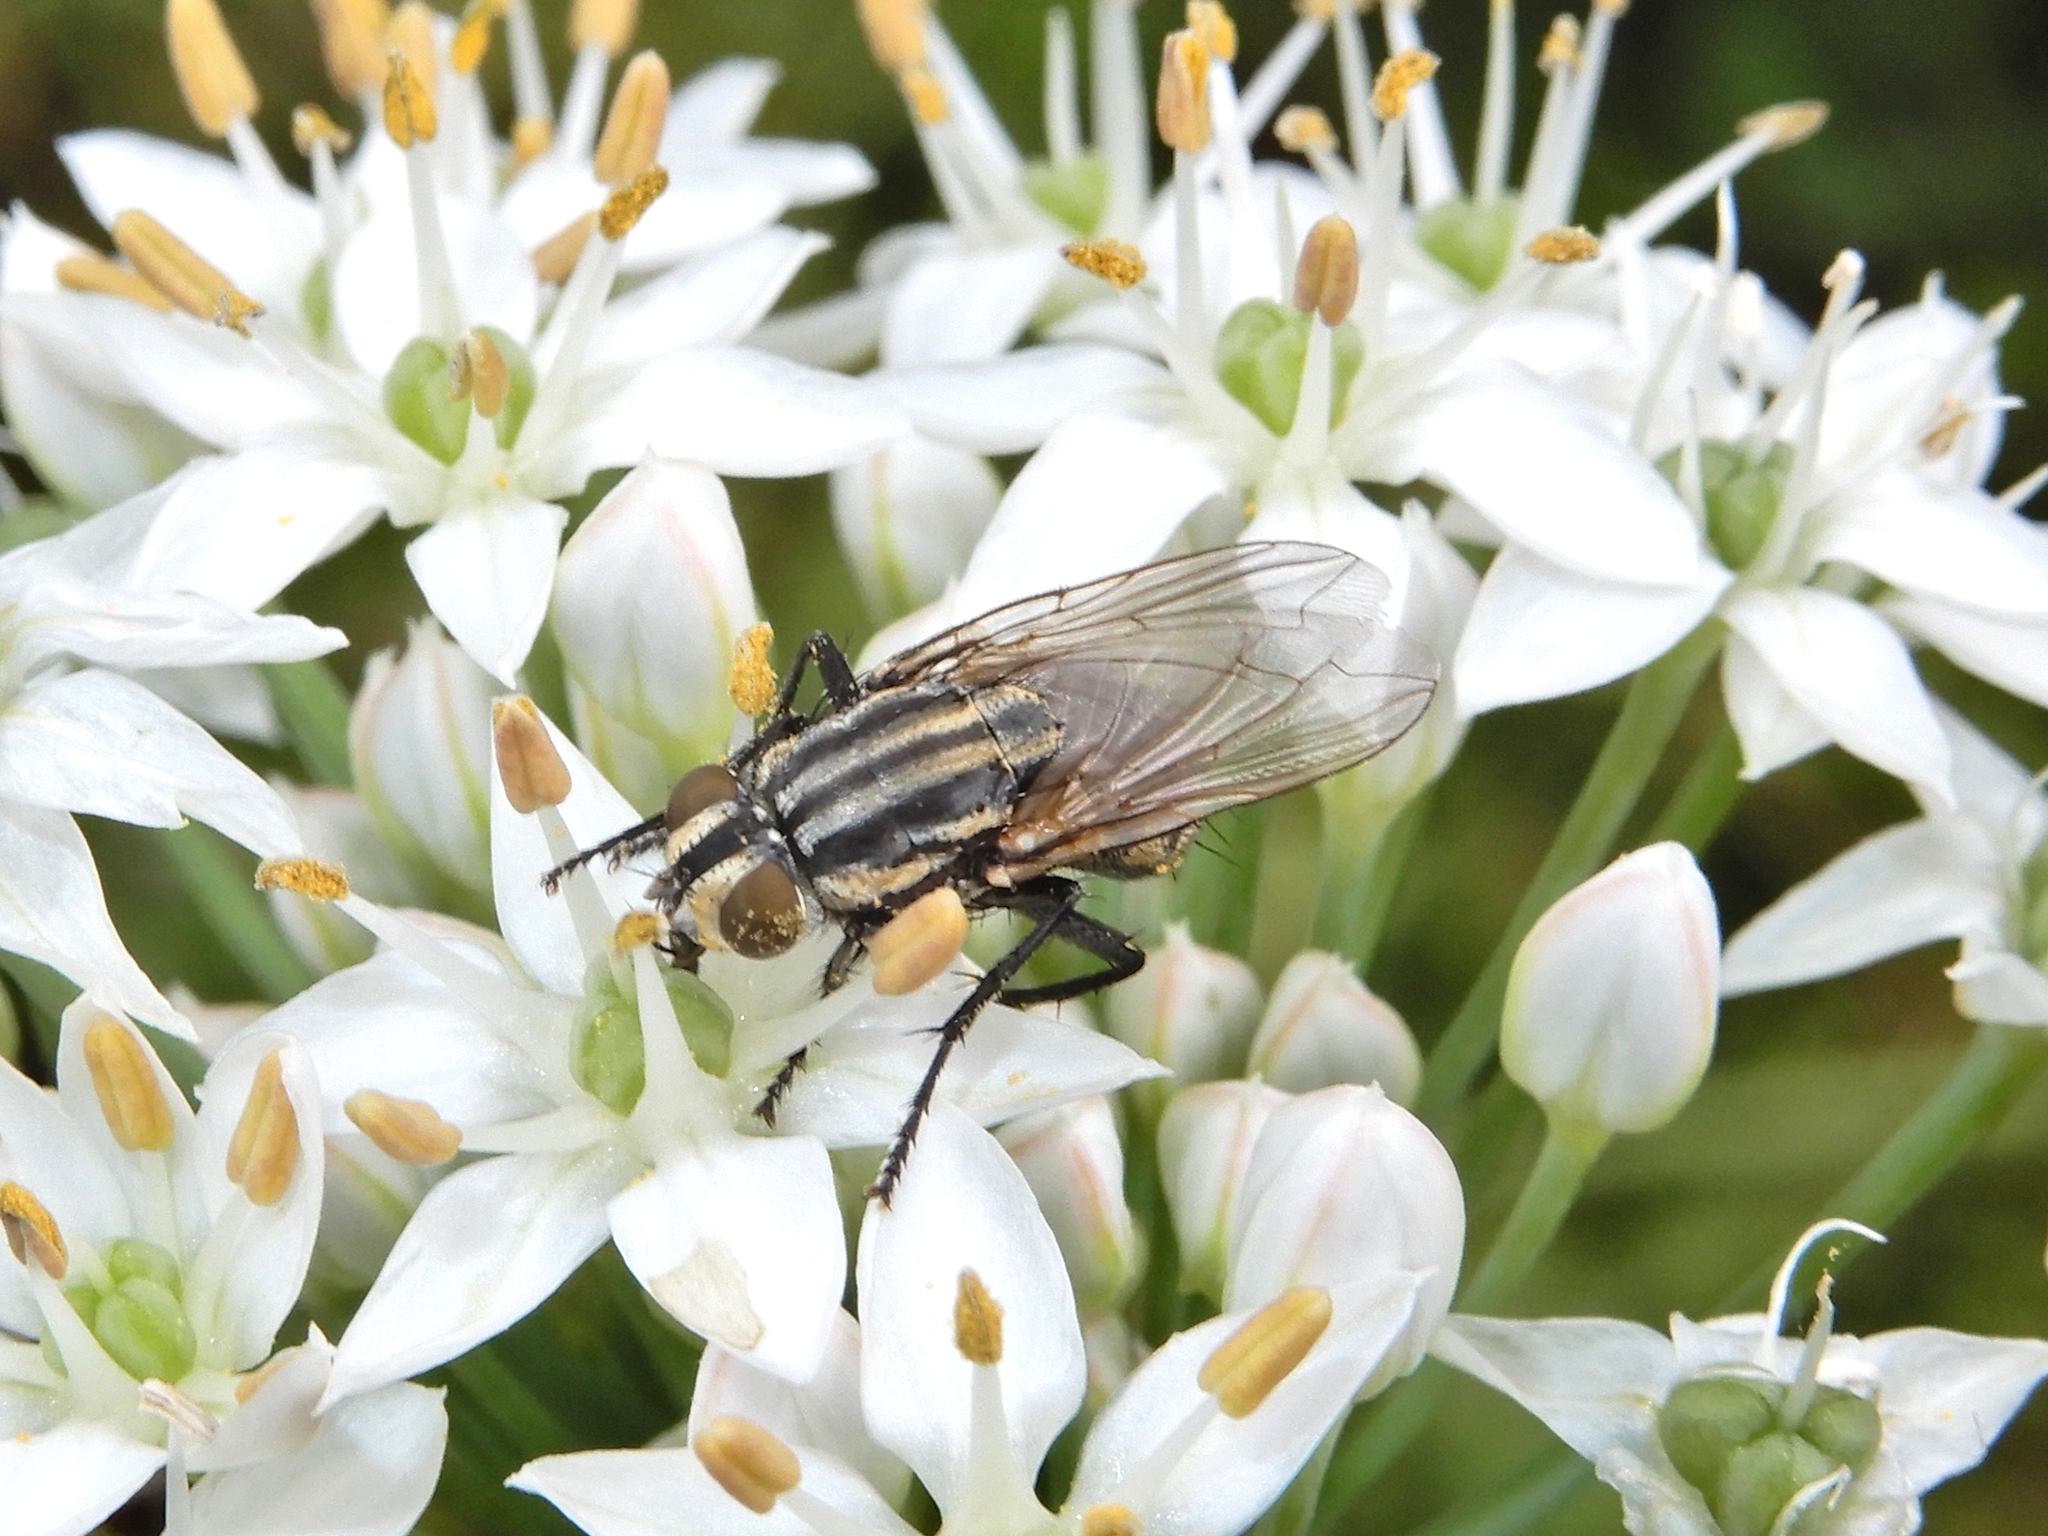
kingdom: Animalia
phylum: Arthropoda
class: Insecta
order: Diptera
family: Sarcophagidae
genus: Oxysarcodexia
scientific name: Oxysarcodexia varia
